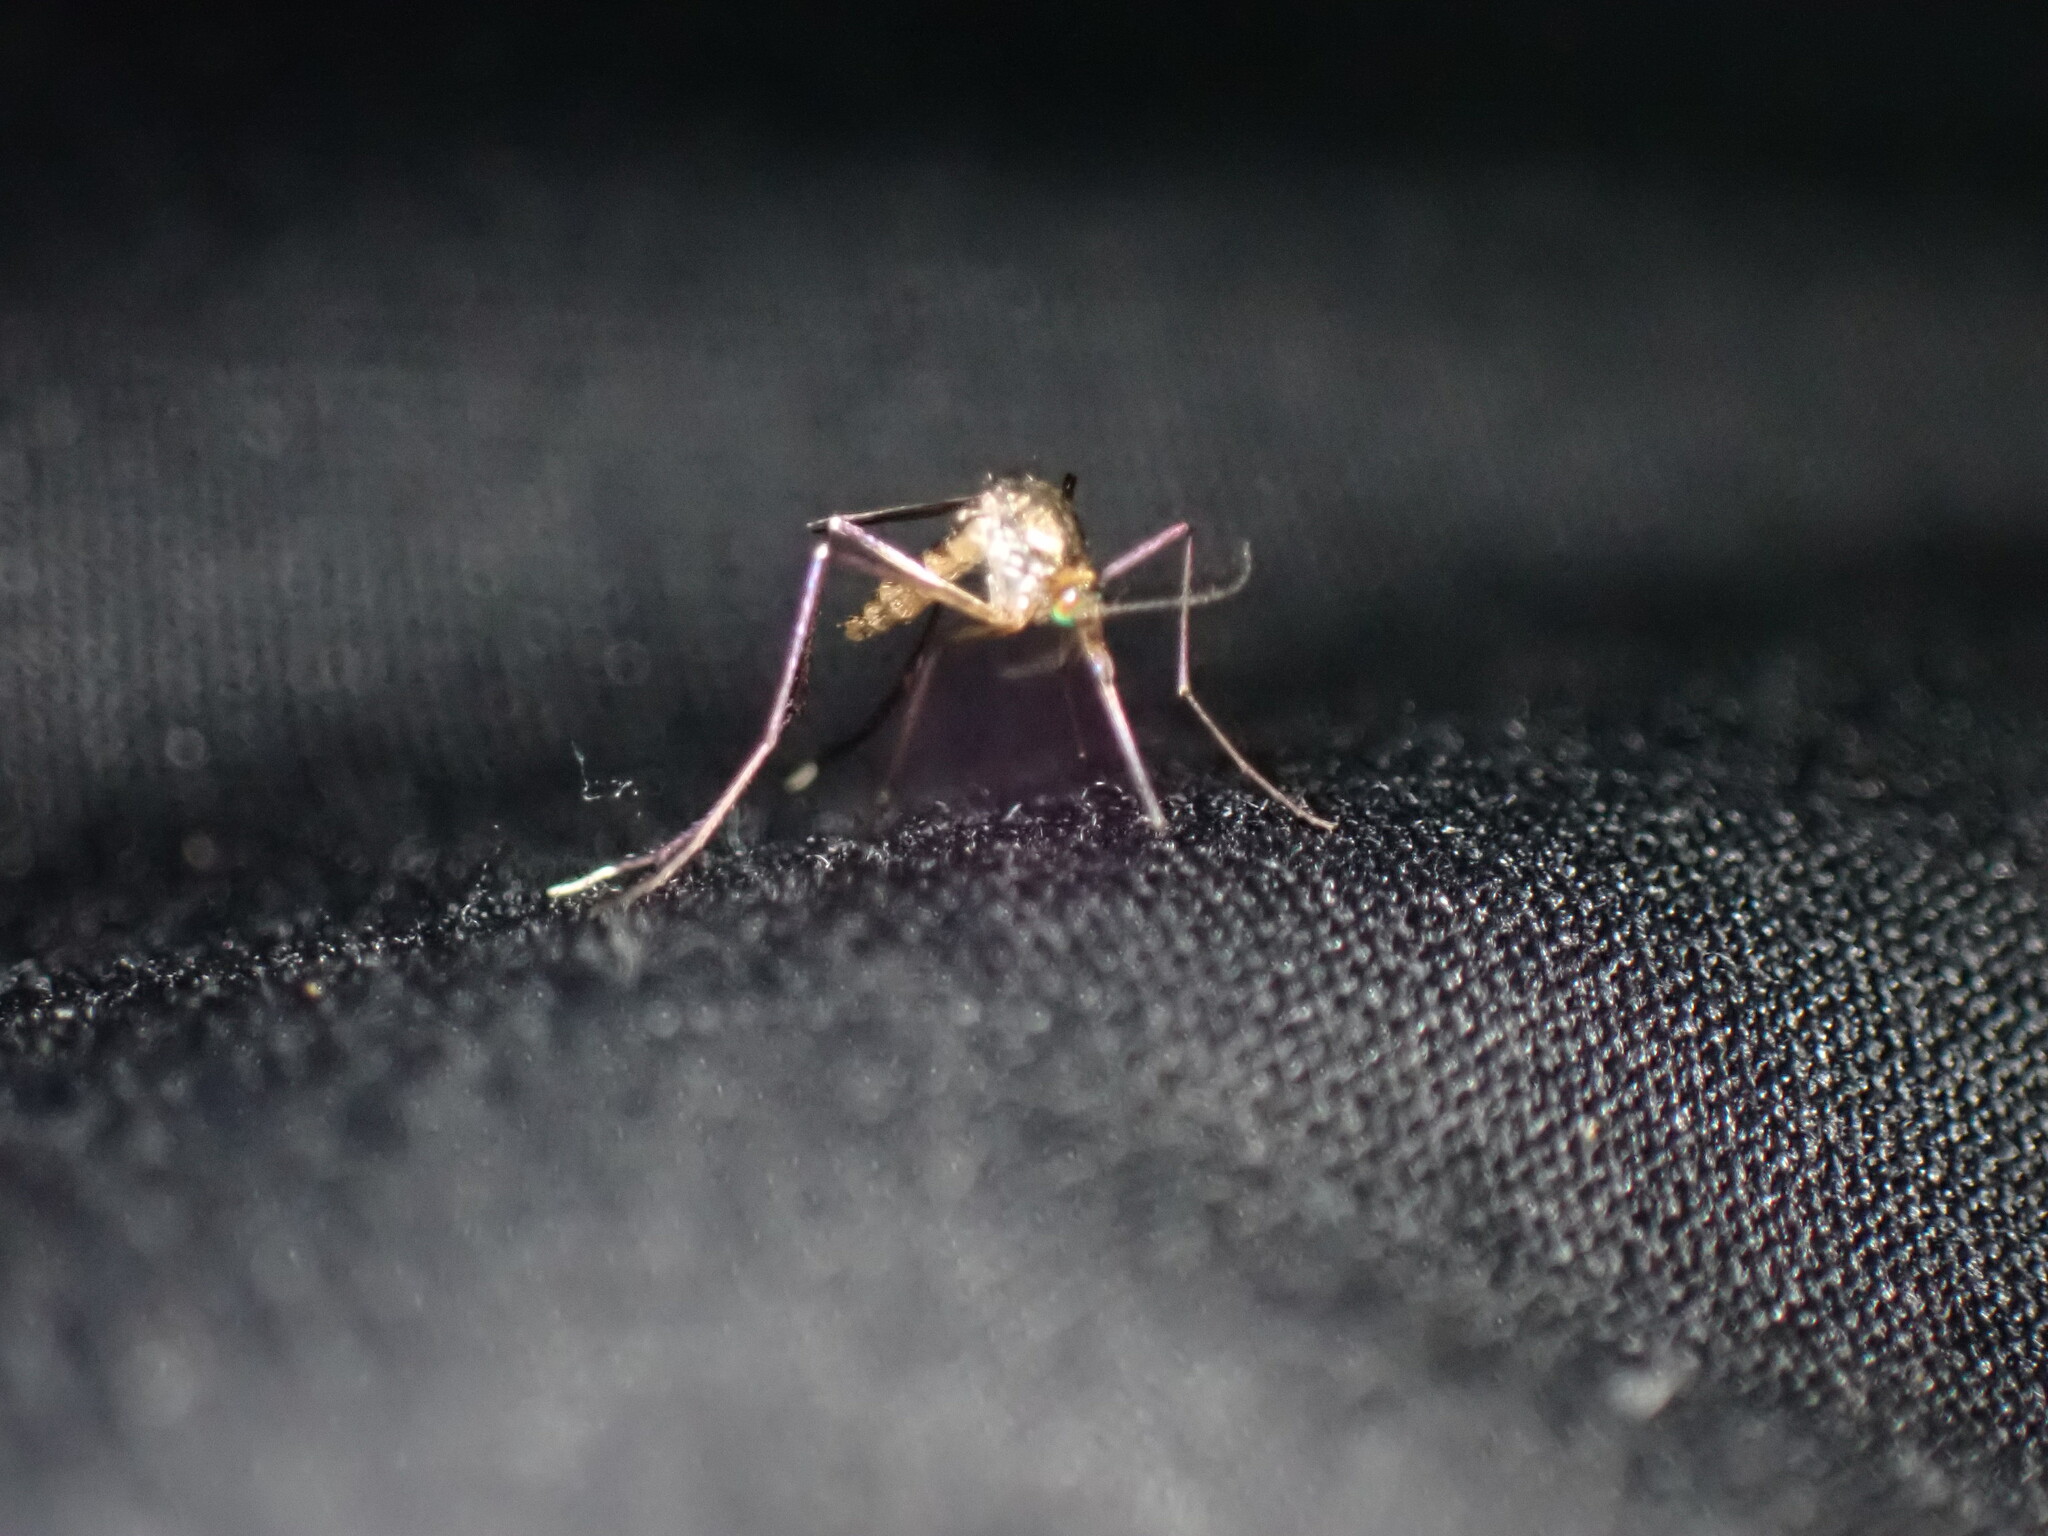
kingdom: Animalia
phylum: Arthropoda
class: Insecta
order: Diptera
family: Culicidae
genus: Psorophora
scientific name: Psorophora ferox
